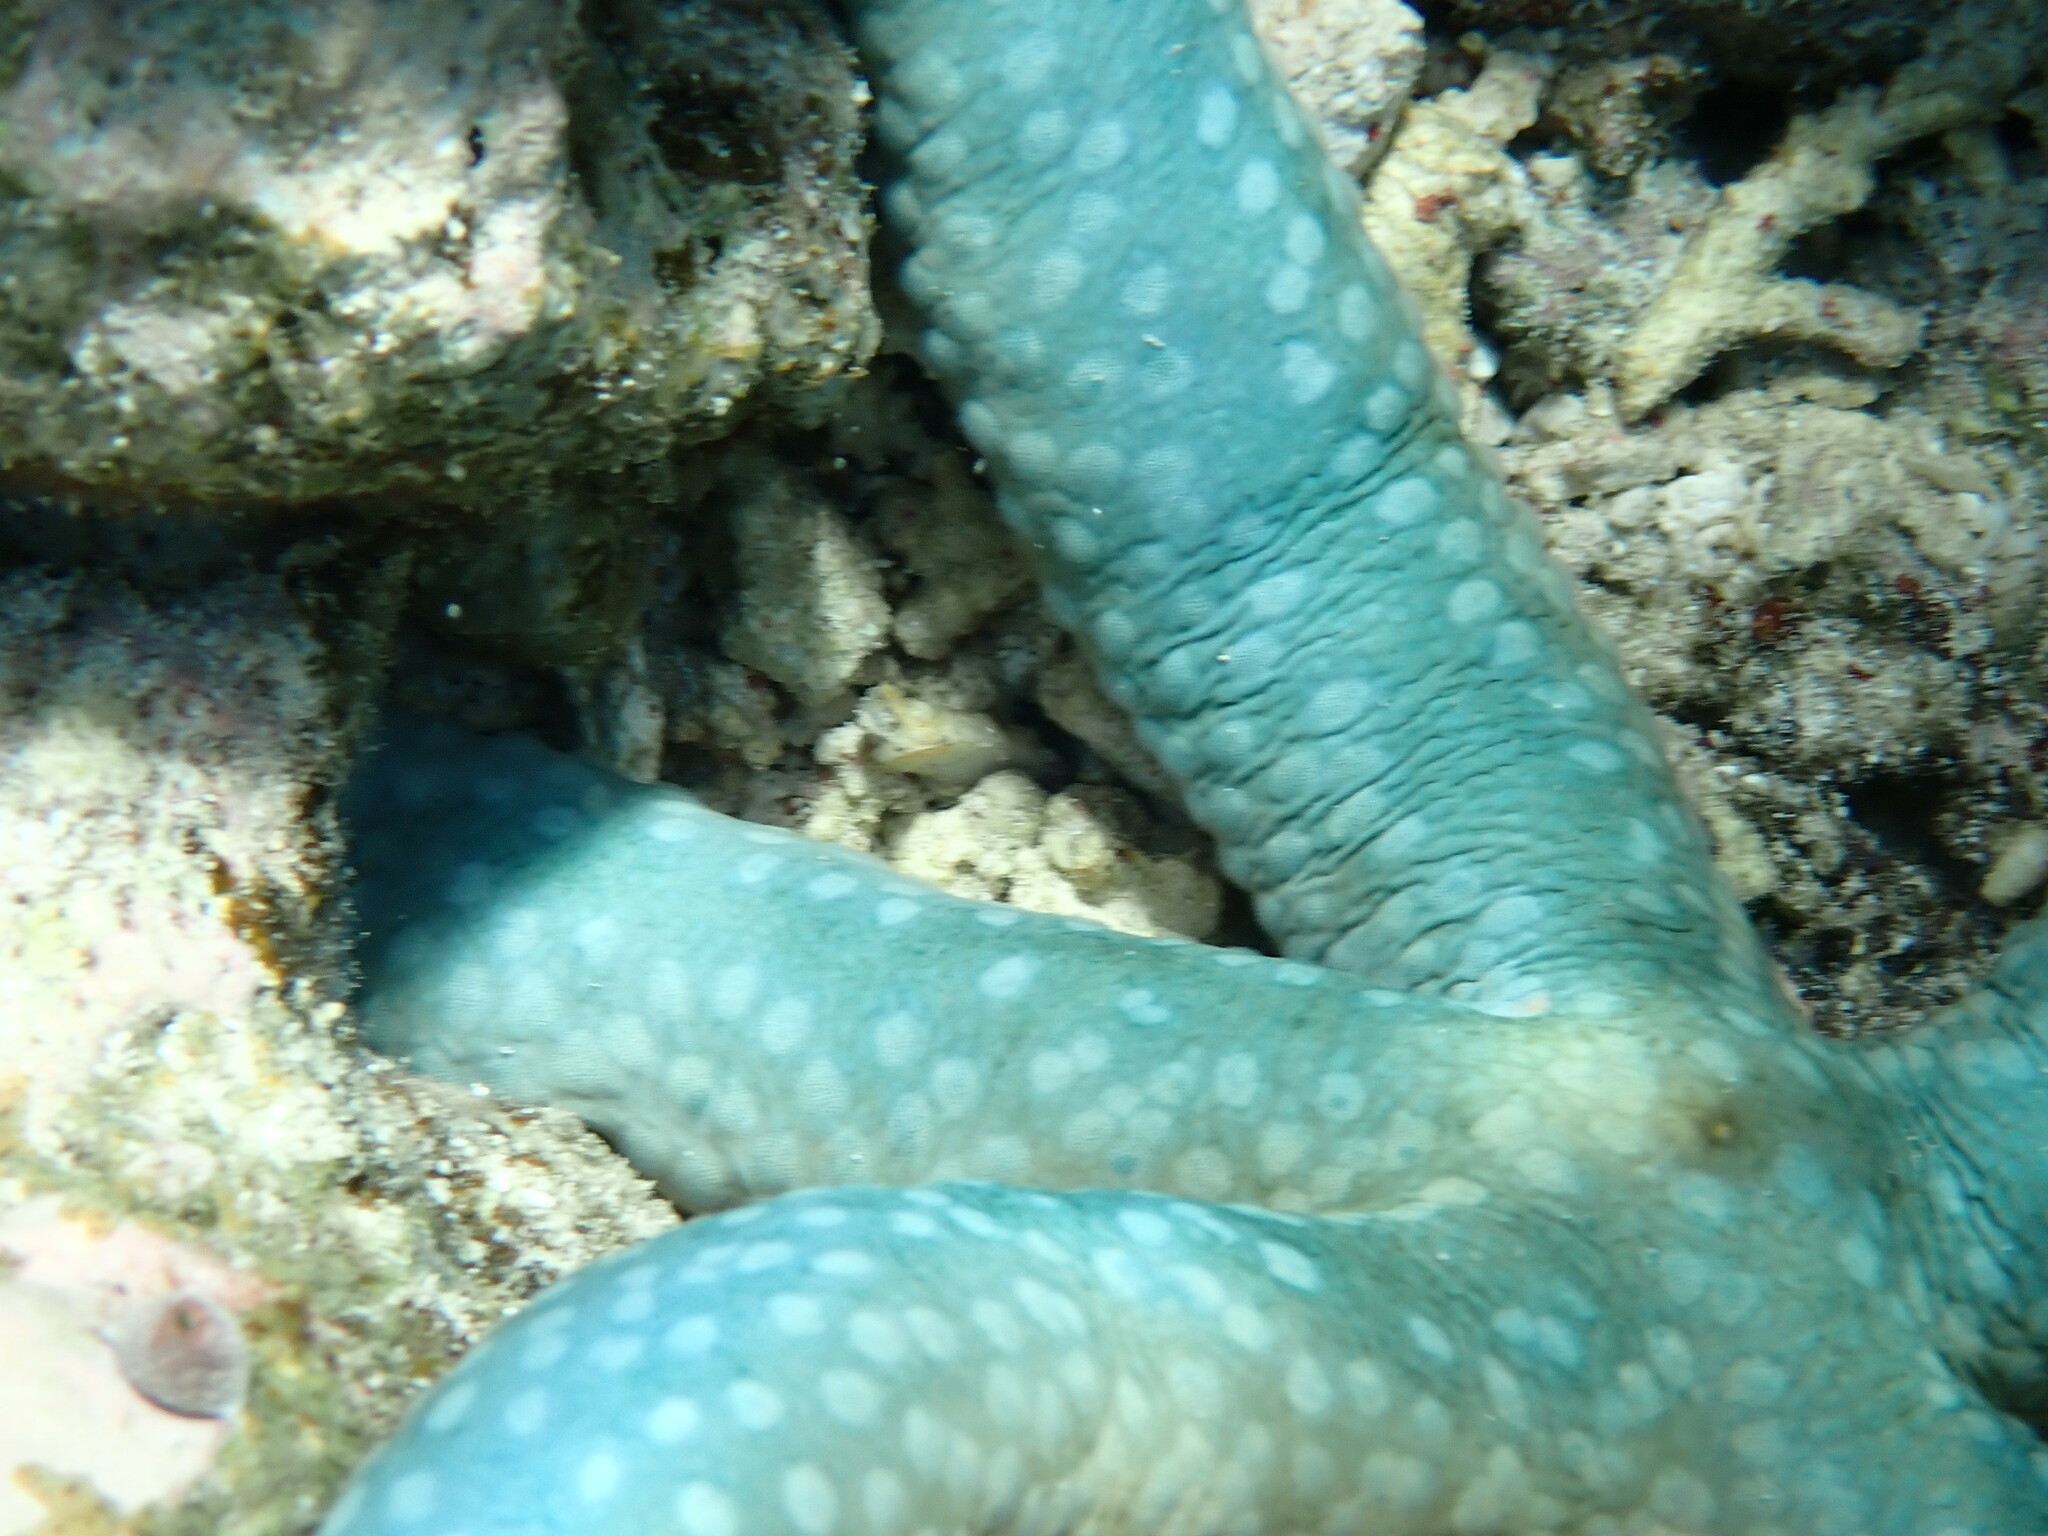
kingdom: Animalia
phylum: Echinodermata
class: Asteroidea
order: Valvatida
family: Ophidiasteridae
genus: Linckia
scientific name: Linckia laevigata
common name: Azure sea star
